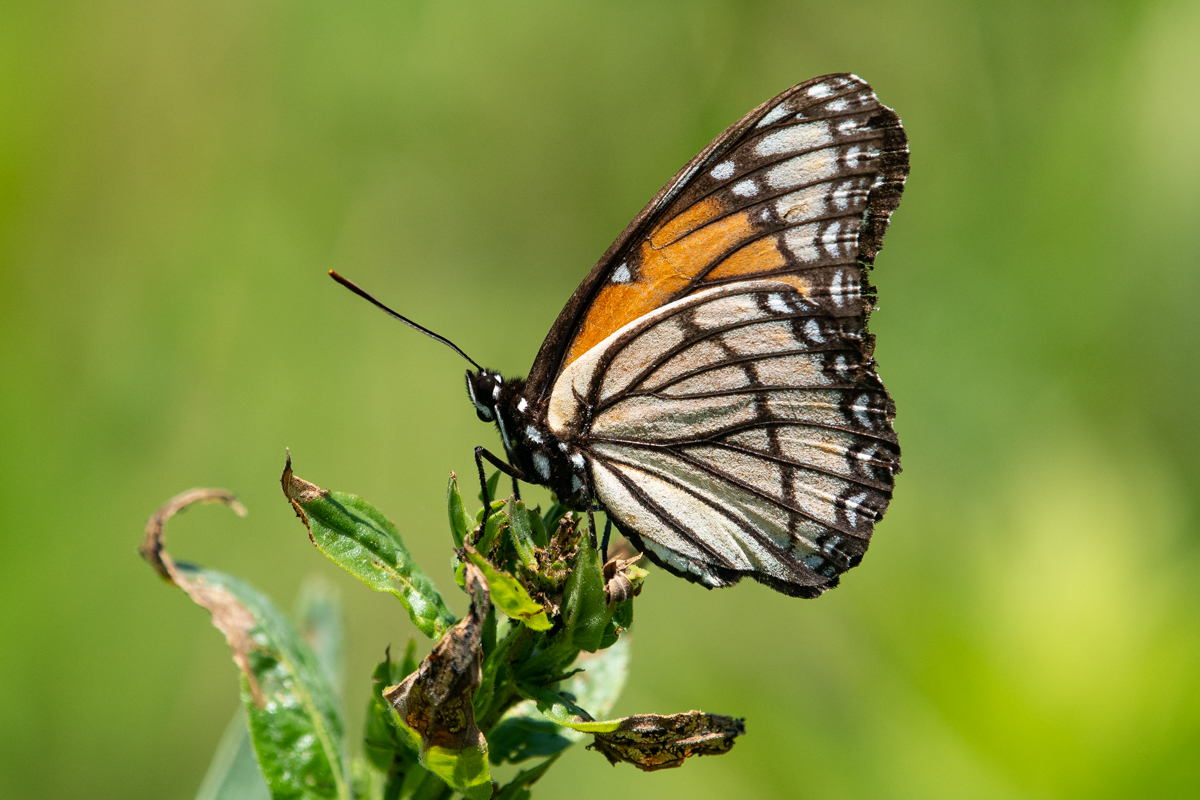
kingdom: Animalia
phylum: Arthropoda
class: Insecta
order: Lepidoptera
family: Nymphalidae
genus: Limenitis
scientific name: Limenitis archippus
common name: Viceroy
